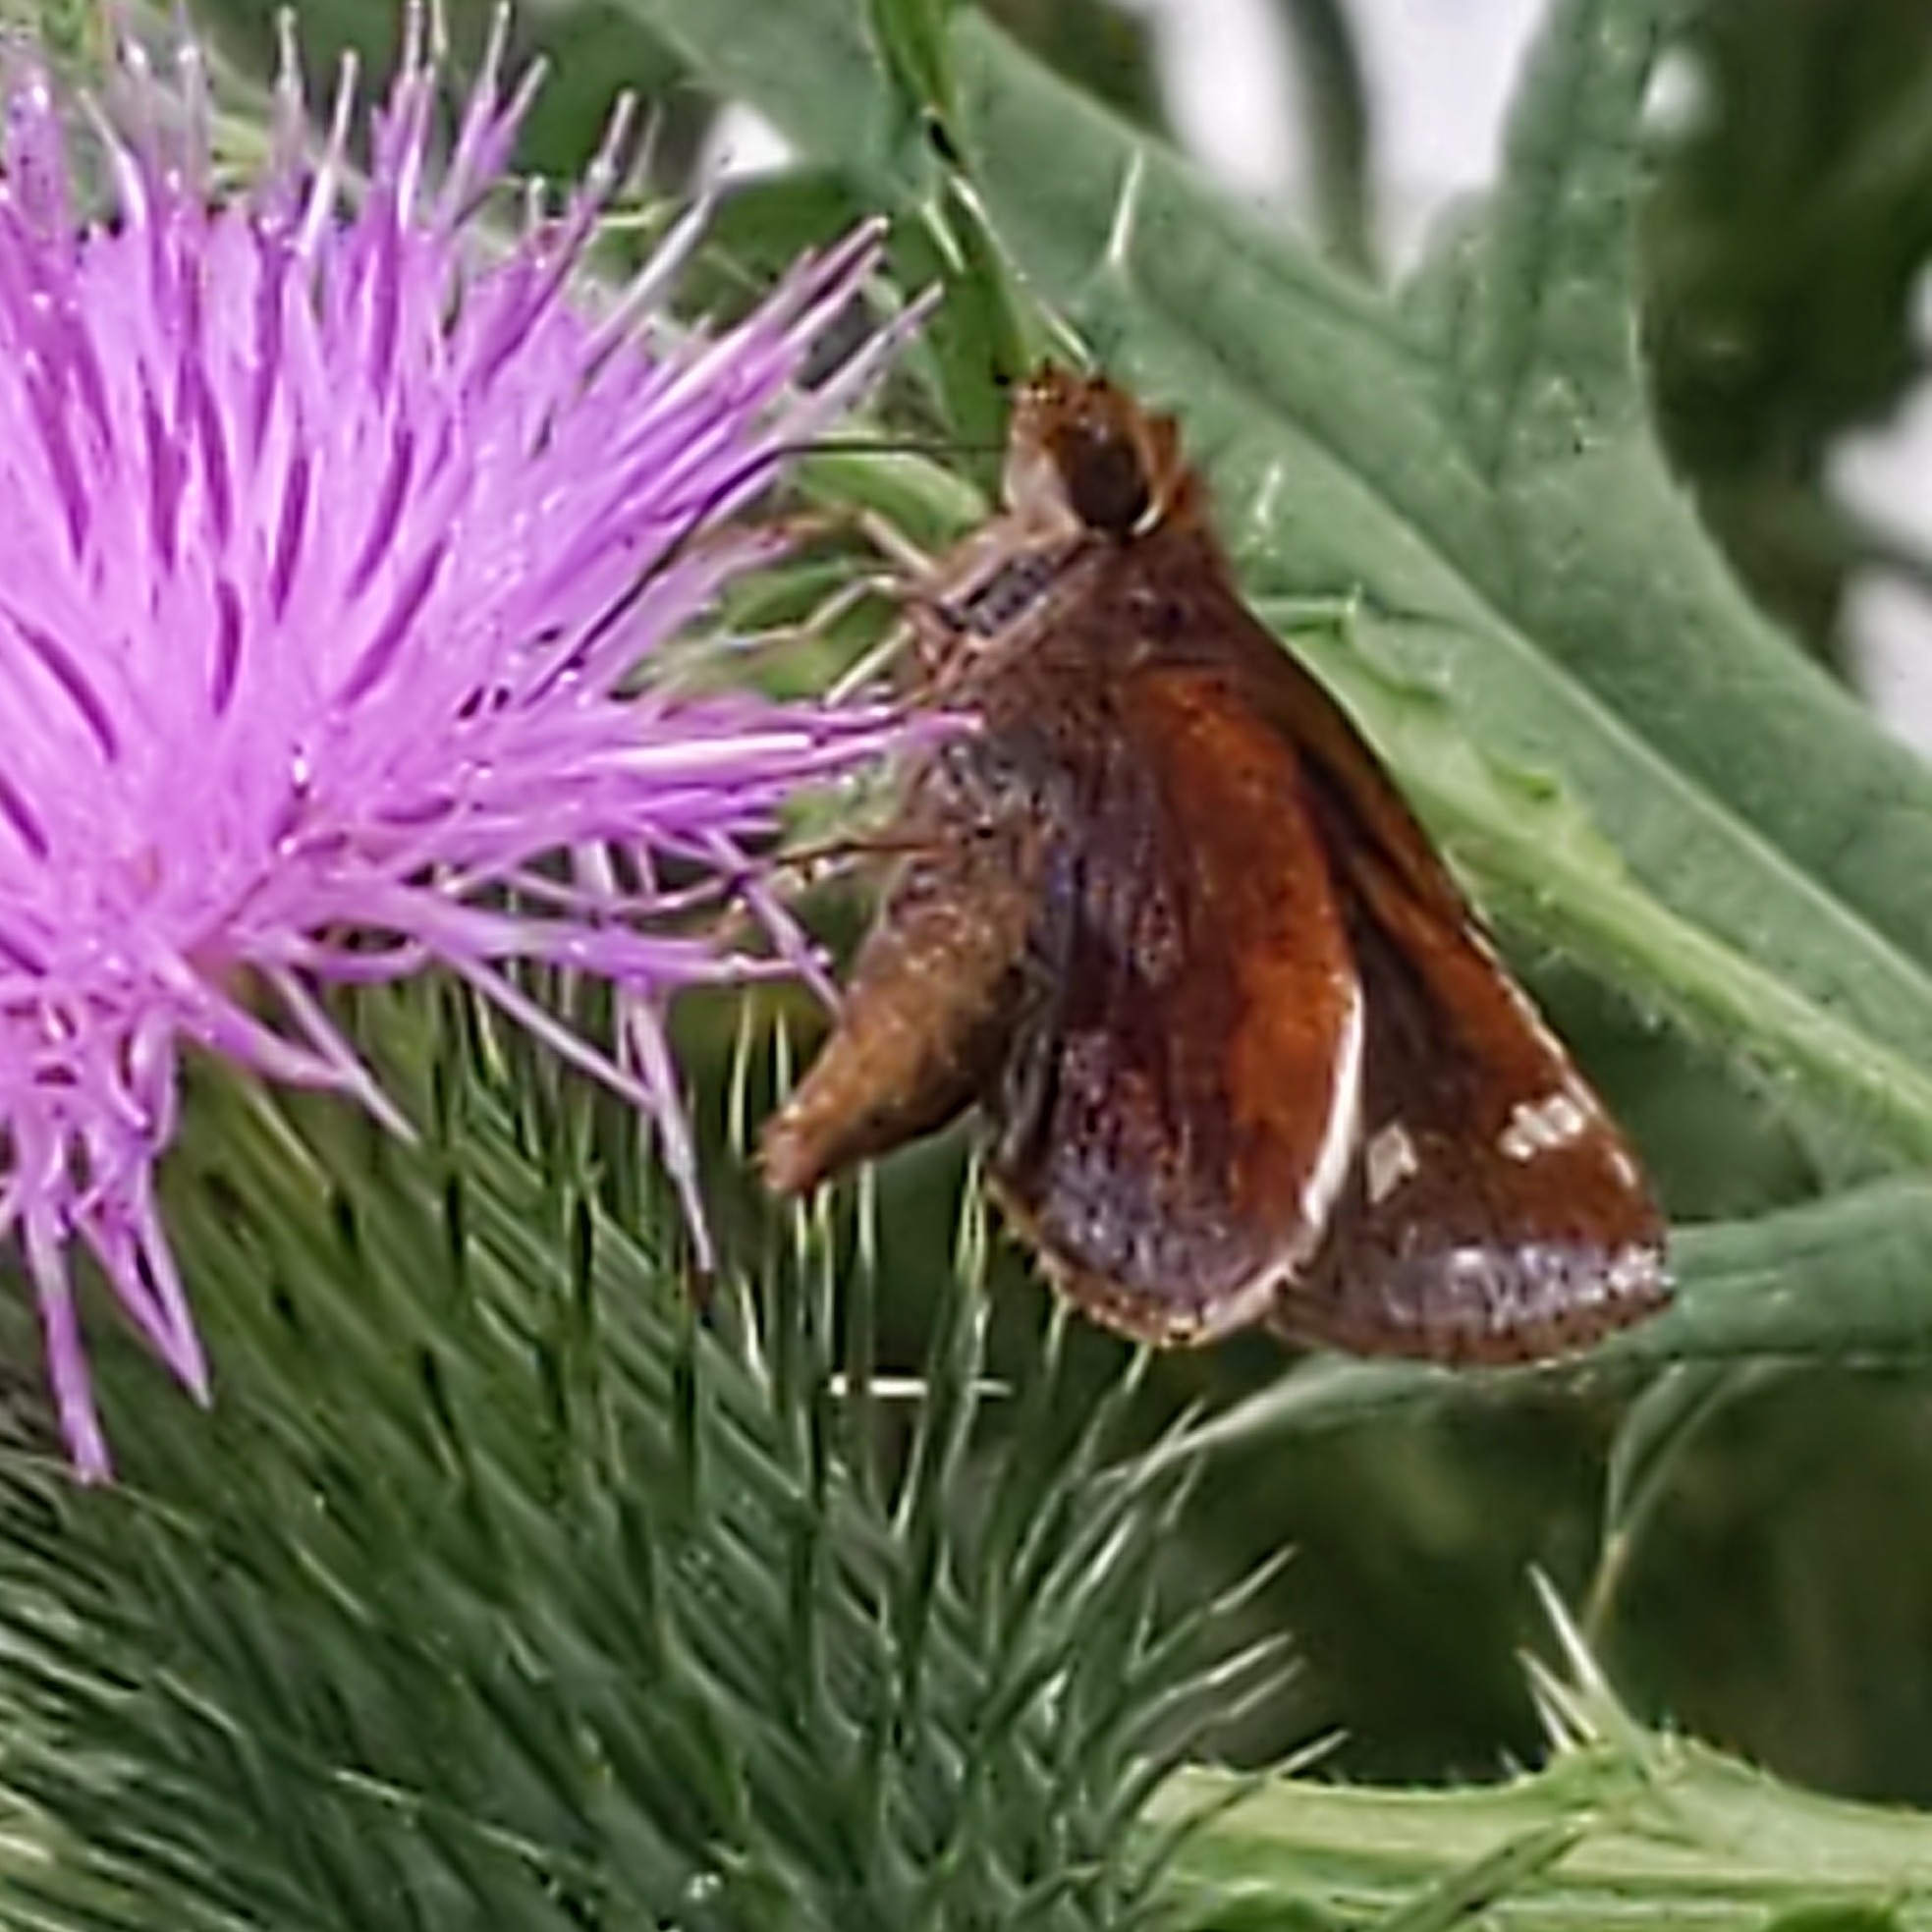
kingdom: Animalia
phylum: Arthropoda
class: Insecta
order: Lepidoptera
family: Hesperiidae
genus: Lon
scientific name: Lon zabulon
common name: Zabulon skipper
